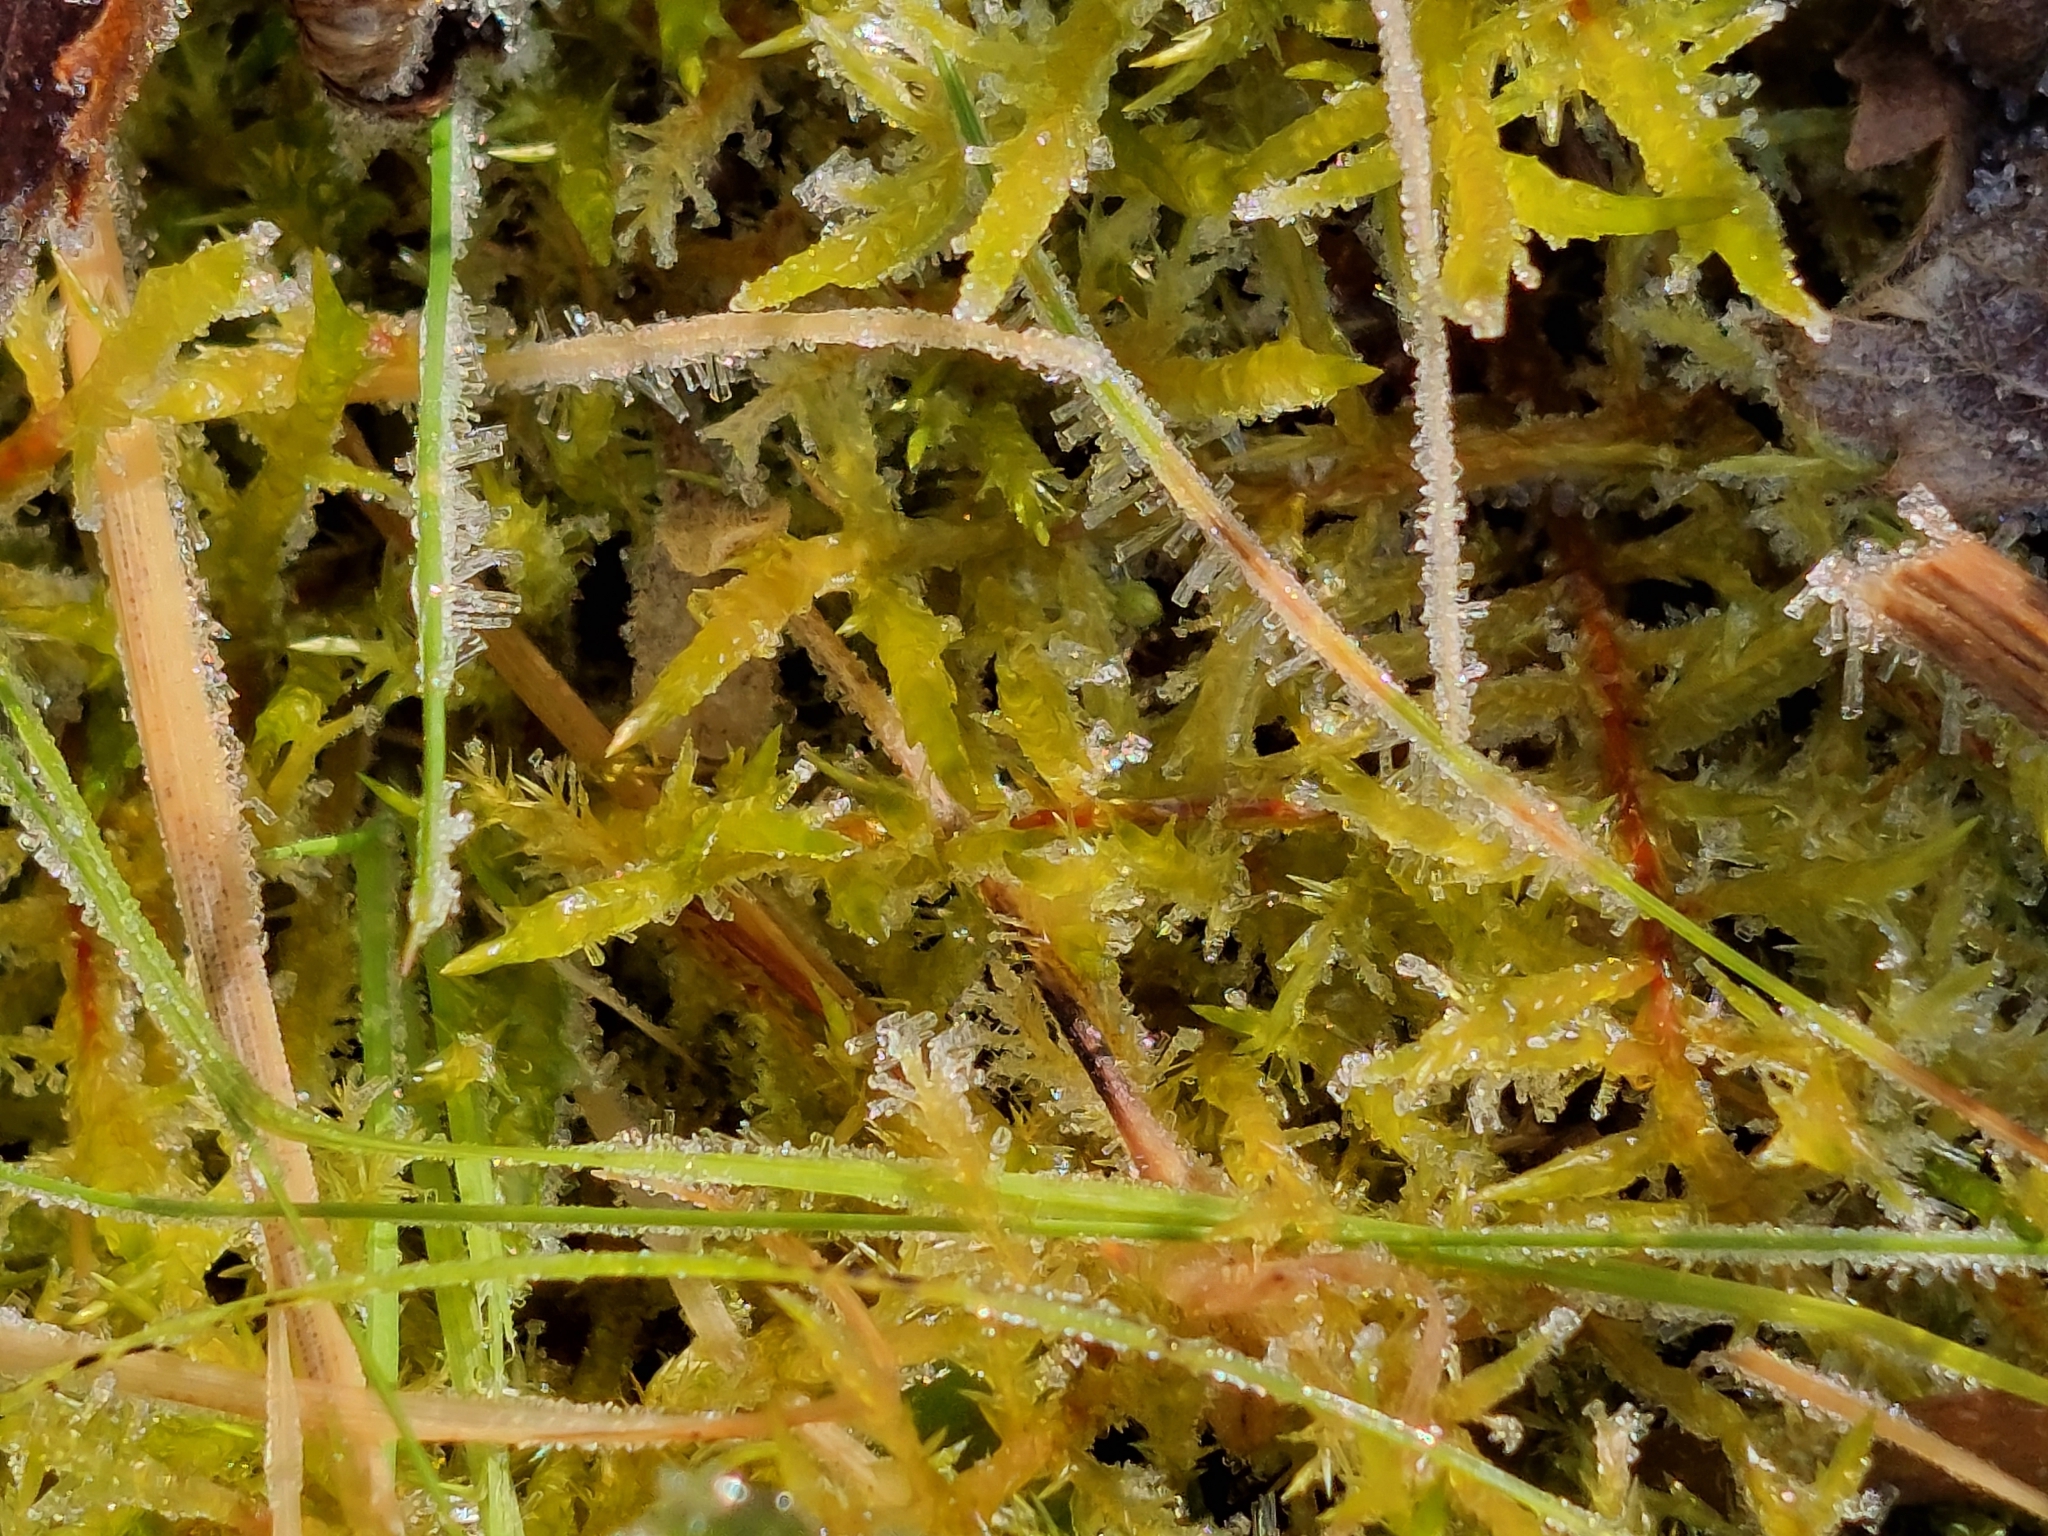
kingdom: Plantae
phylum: Bryophyta
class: Bryopsida
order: Hypnales
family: Pylaisiaceae
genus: Calliergonella
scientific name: Calliergonella cuspidata
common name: Common large wetland moss
